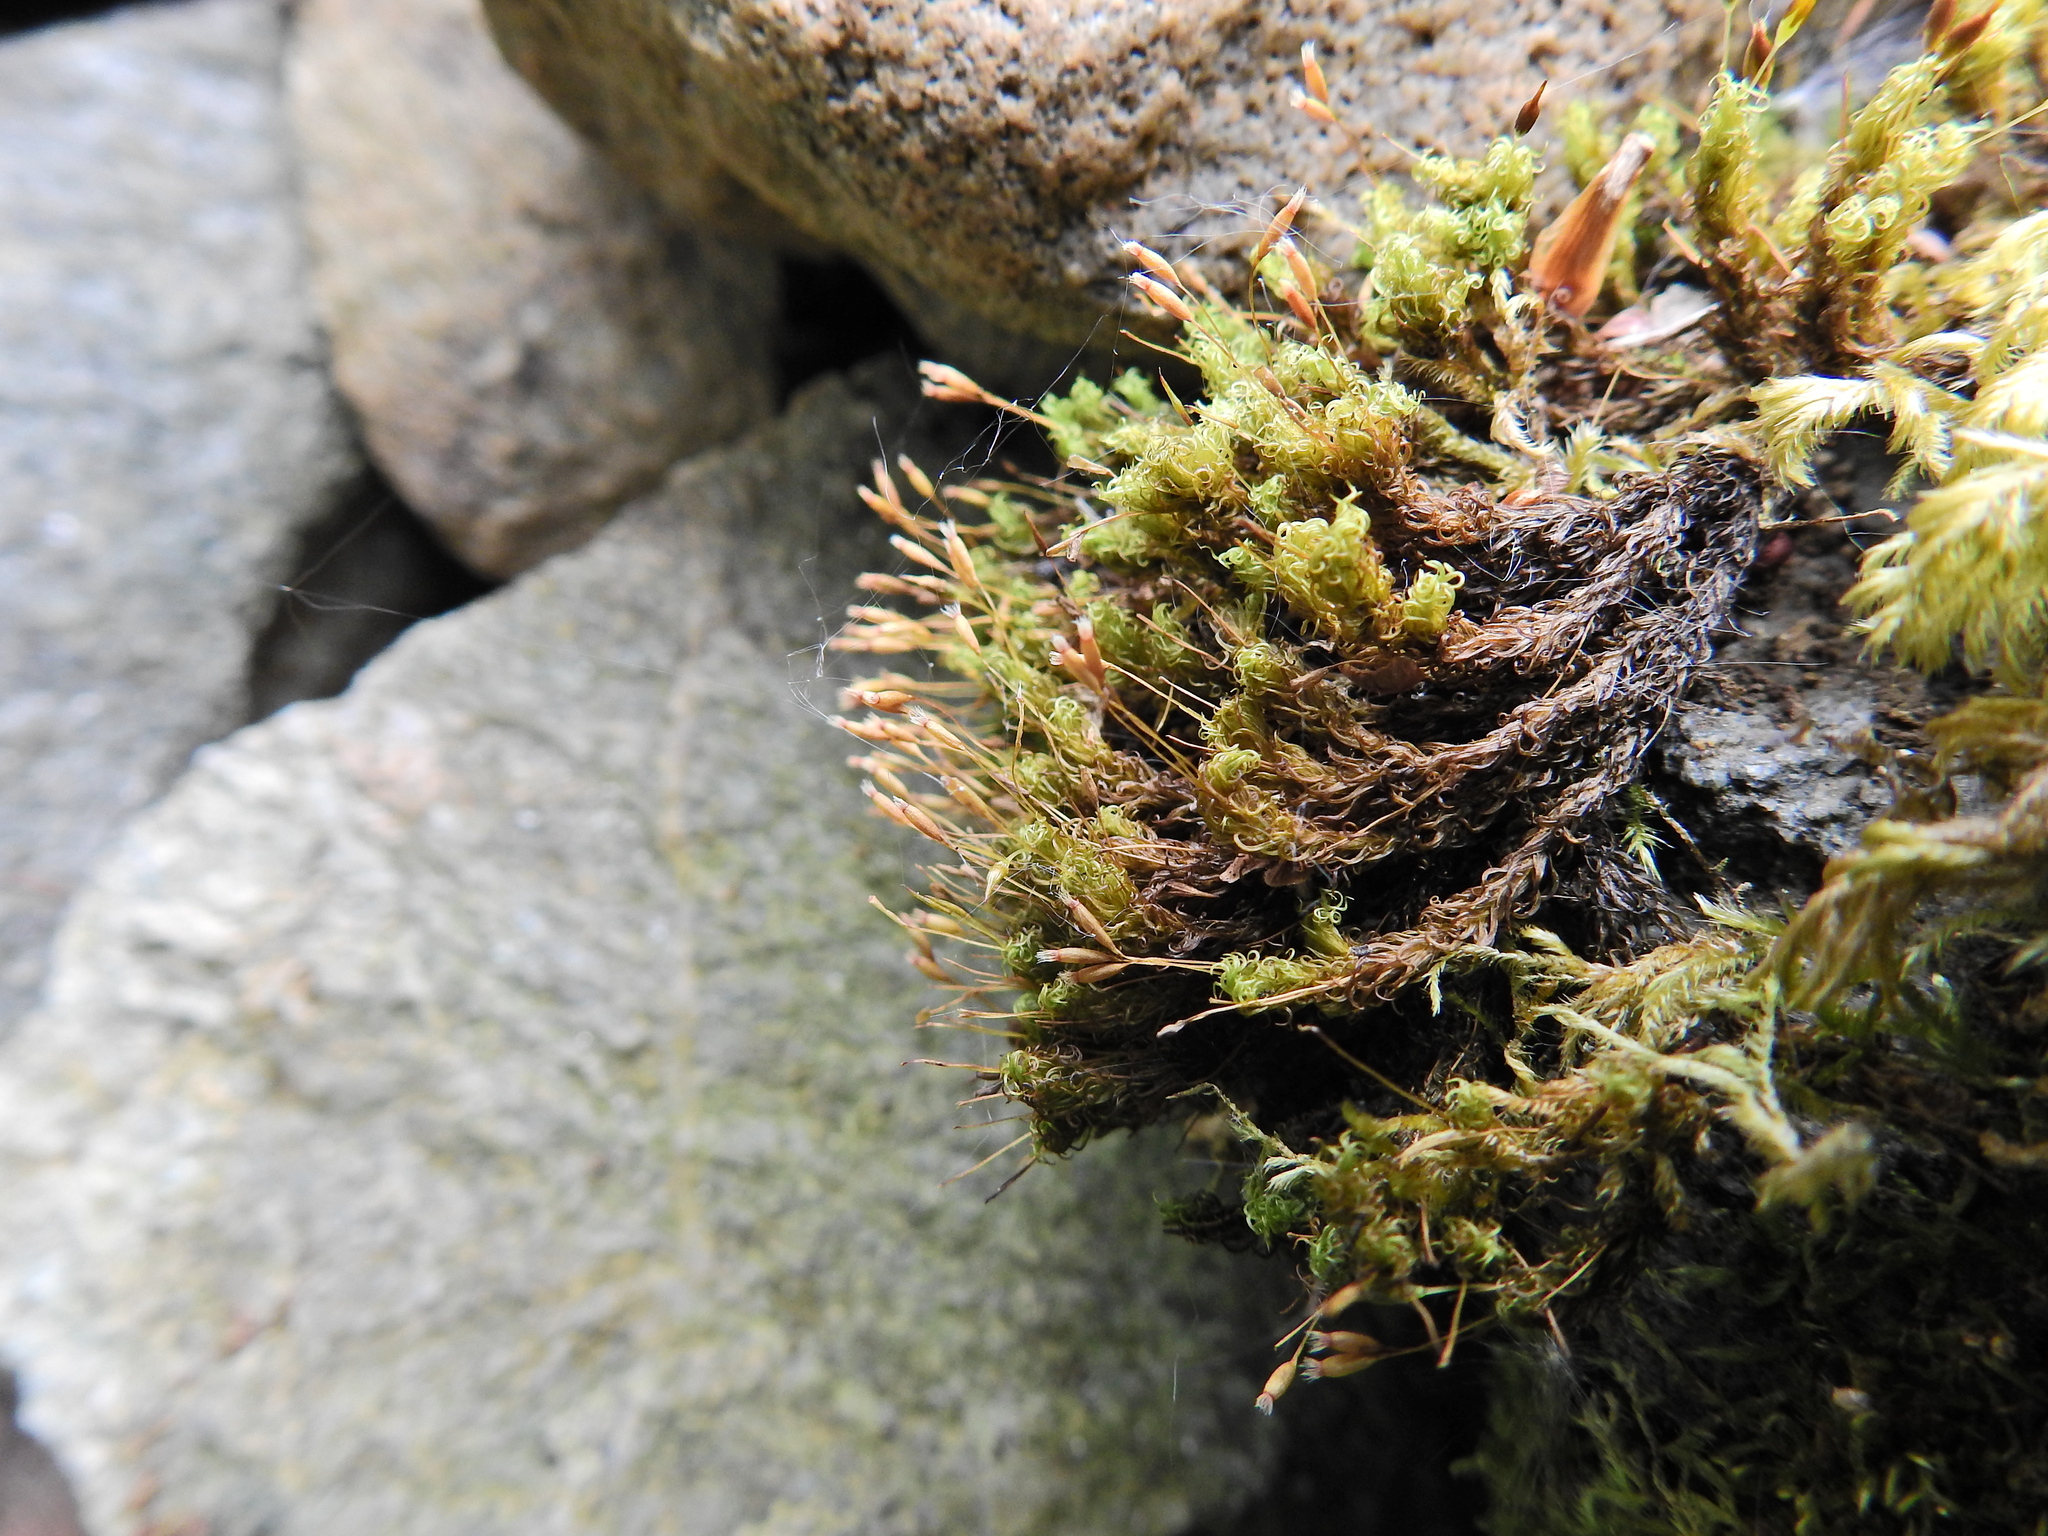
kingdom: Plantae
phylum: Bryophyta
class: Bryopsida
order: Grimmiales
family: Ptychomitriaceae
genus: Ptychomitrium
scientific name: Ptychomitrium polyphyllum
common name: Greater pincushion
